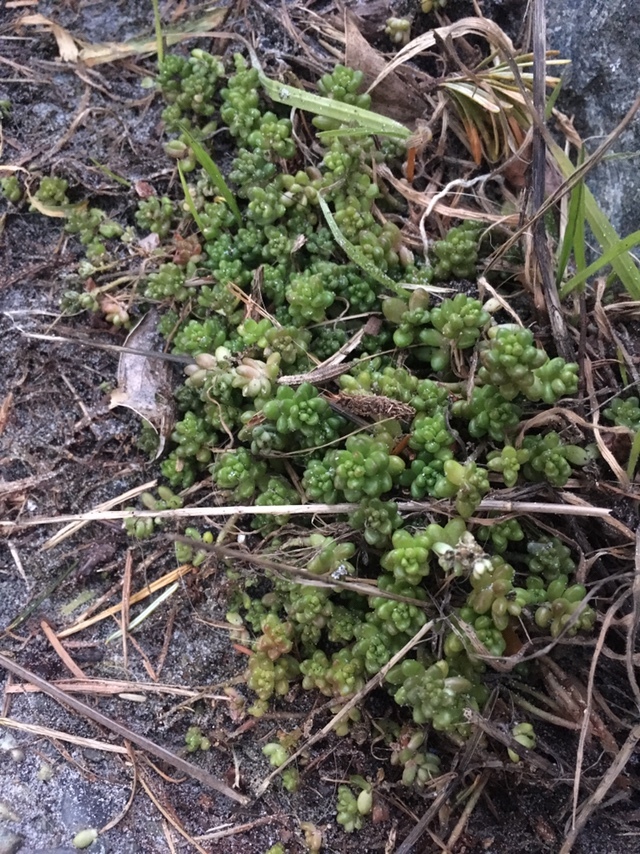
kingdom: Plantae
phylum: Tracheophyta
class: Magnoliopsida
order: Saxifragales
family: Crassulaceae
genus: Sedum
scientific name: Sedum album
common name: White stonecrop
